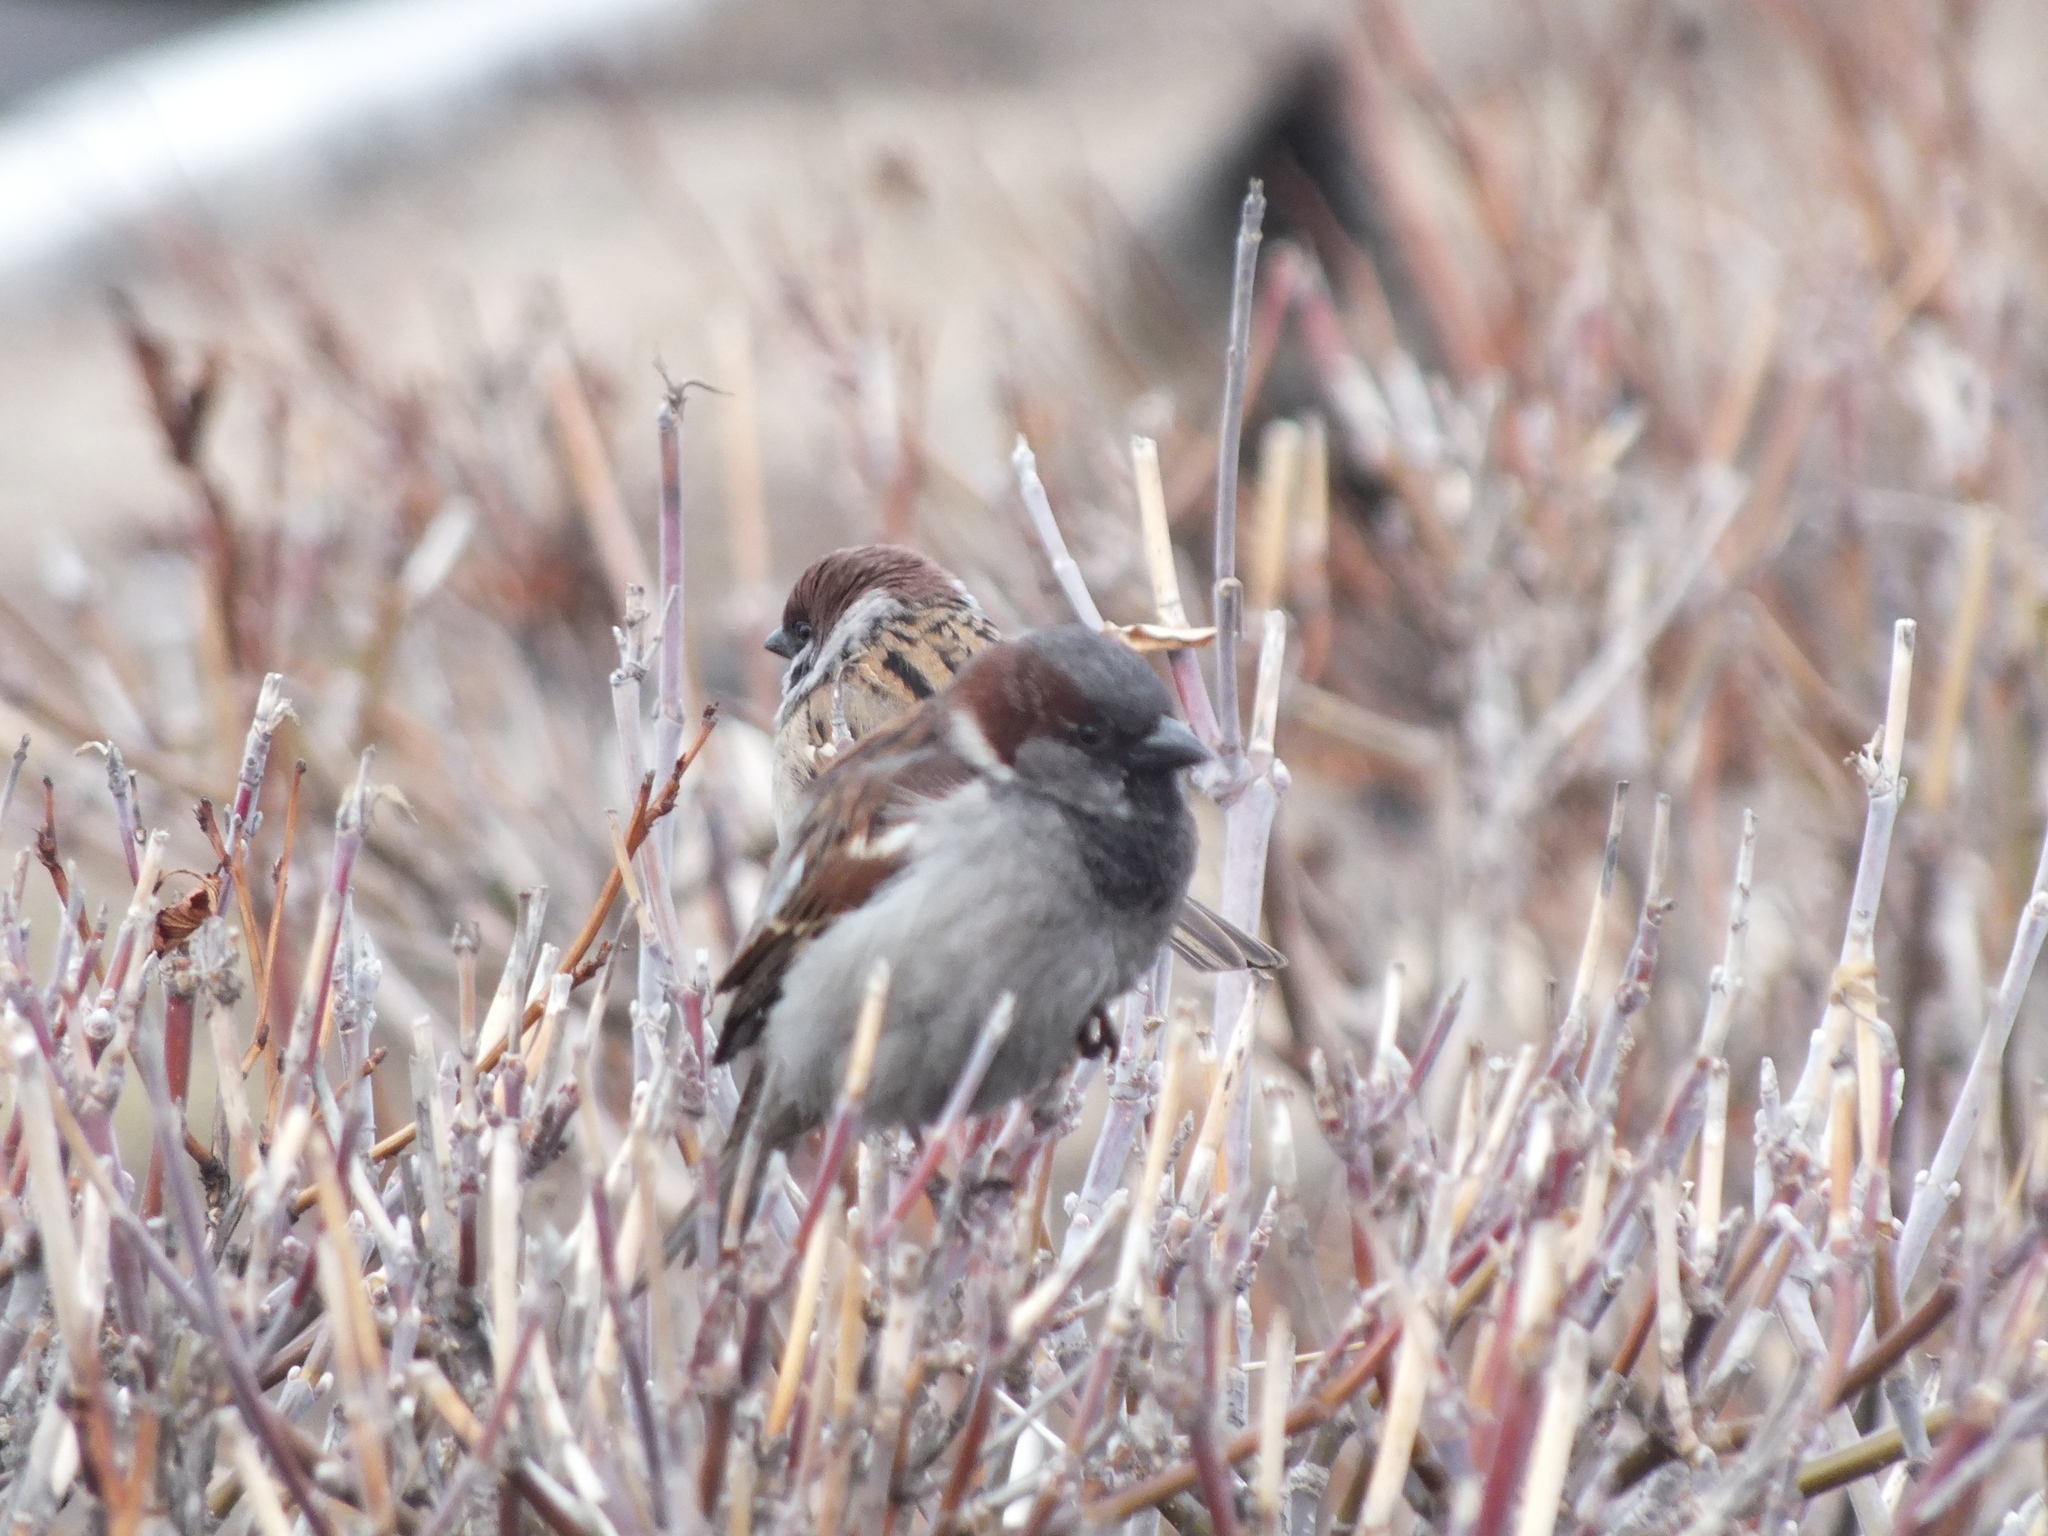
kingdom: Animalia
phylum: Chordata
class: Aves
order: Passeriformes
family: Passeridae
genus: Passer
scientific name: Passer domesticus
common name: House sparrow
